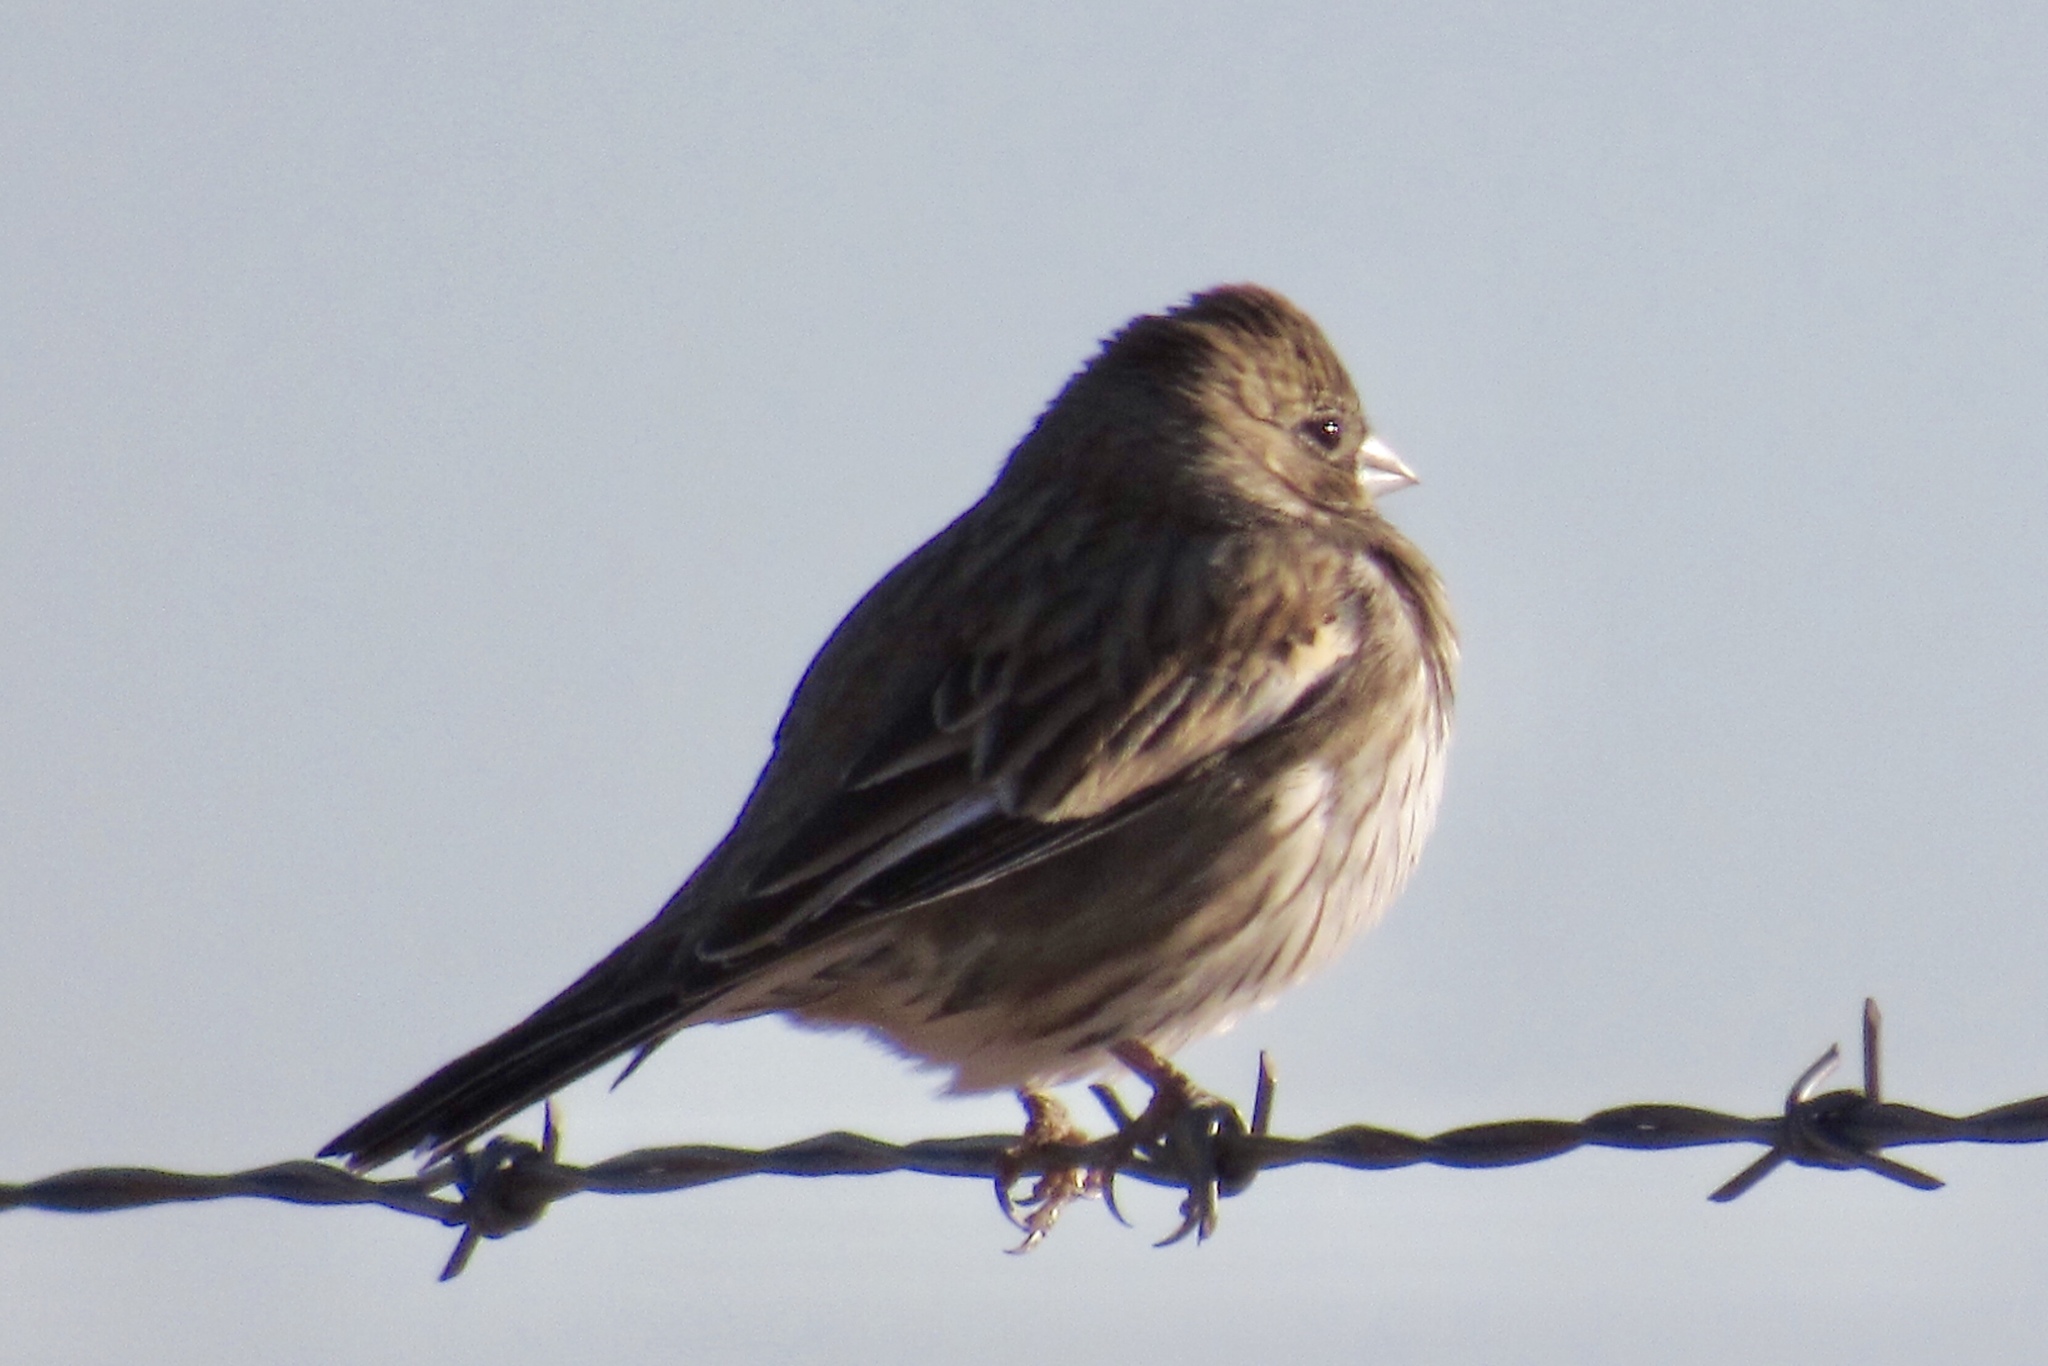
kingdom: Animalia
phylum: Chordata
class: Aves
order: Passeriformes
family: Passerellidae
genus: Calamospiza
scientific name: Calamospiza melanocorys
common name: Lark bunting
